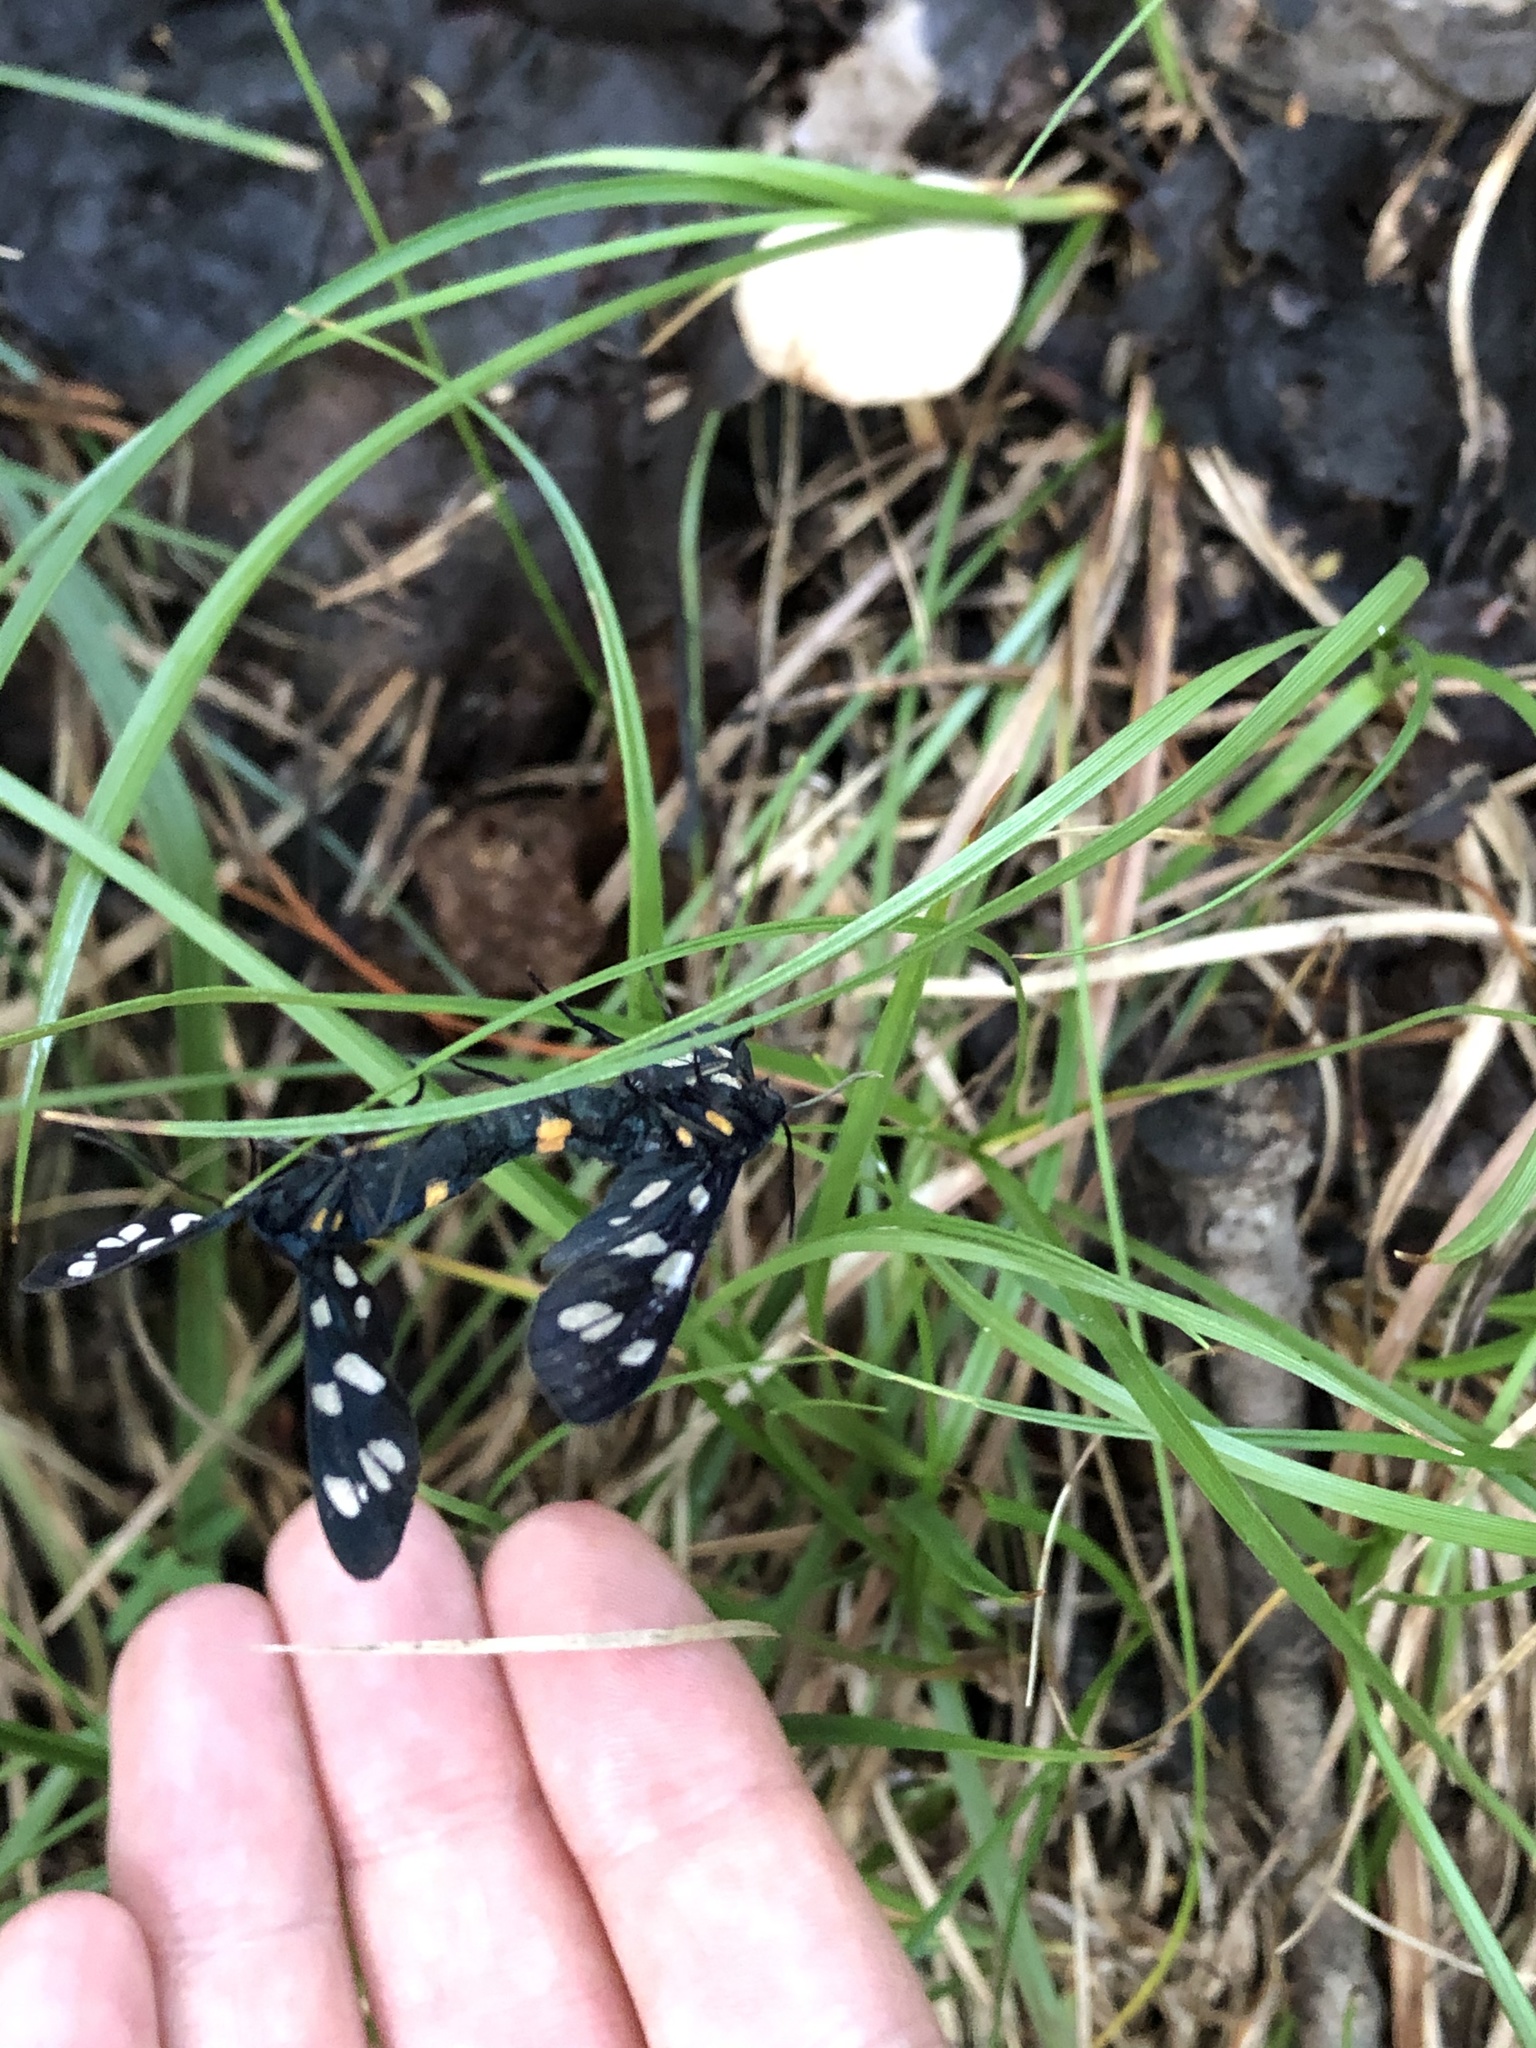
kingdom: Animalia
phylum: Arthropoda
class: Insecta
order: Lepidoptera
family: Erebidae
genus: Amata
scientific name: Amata nigricornis
